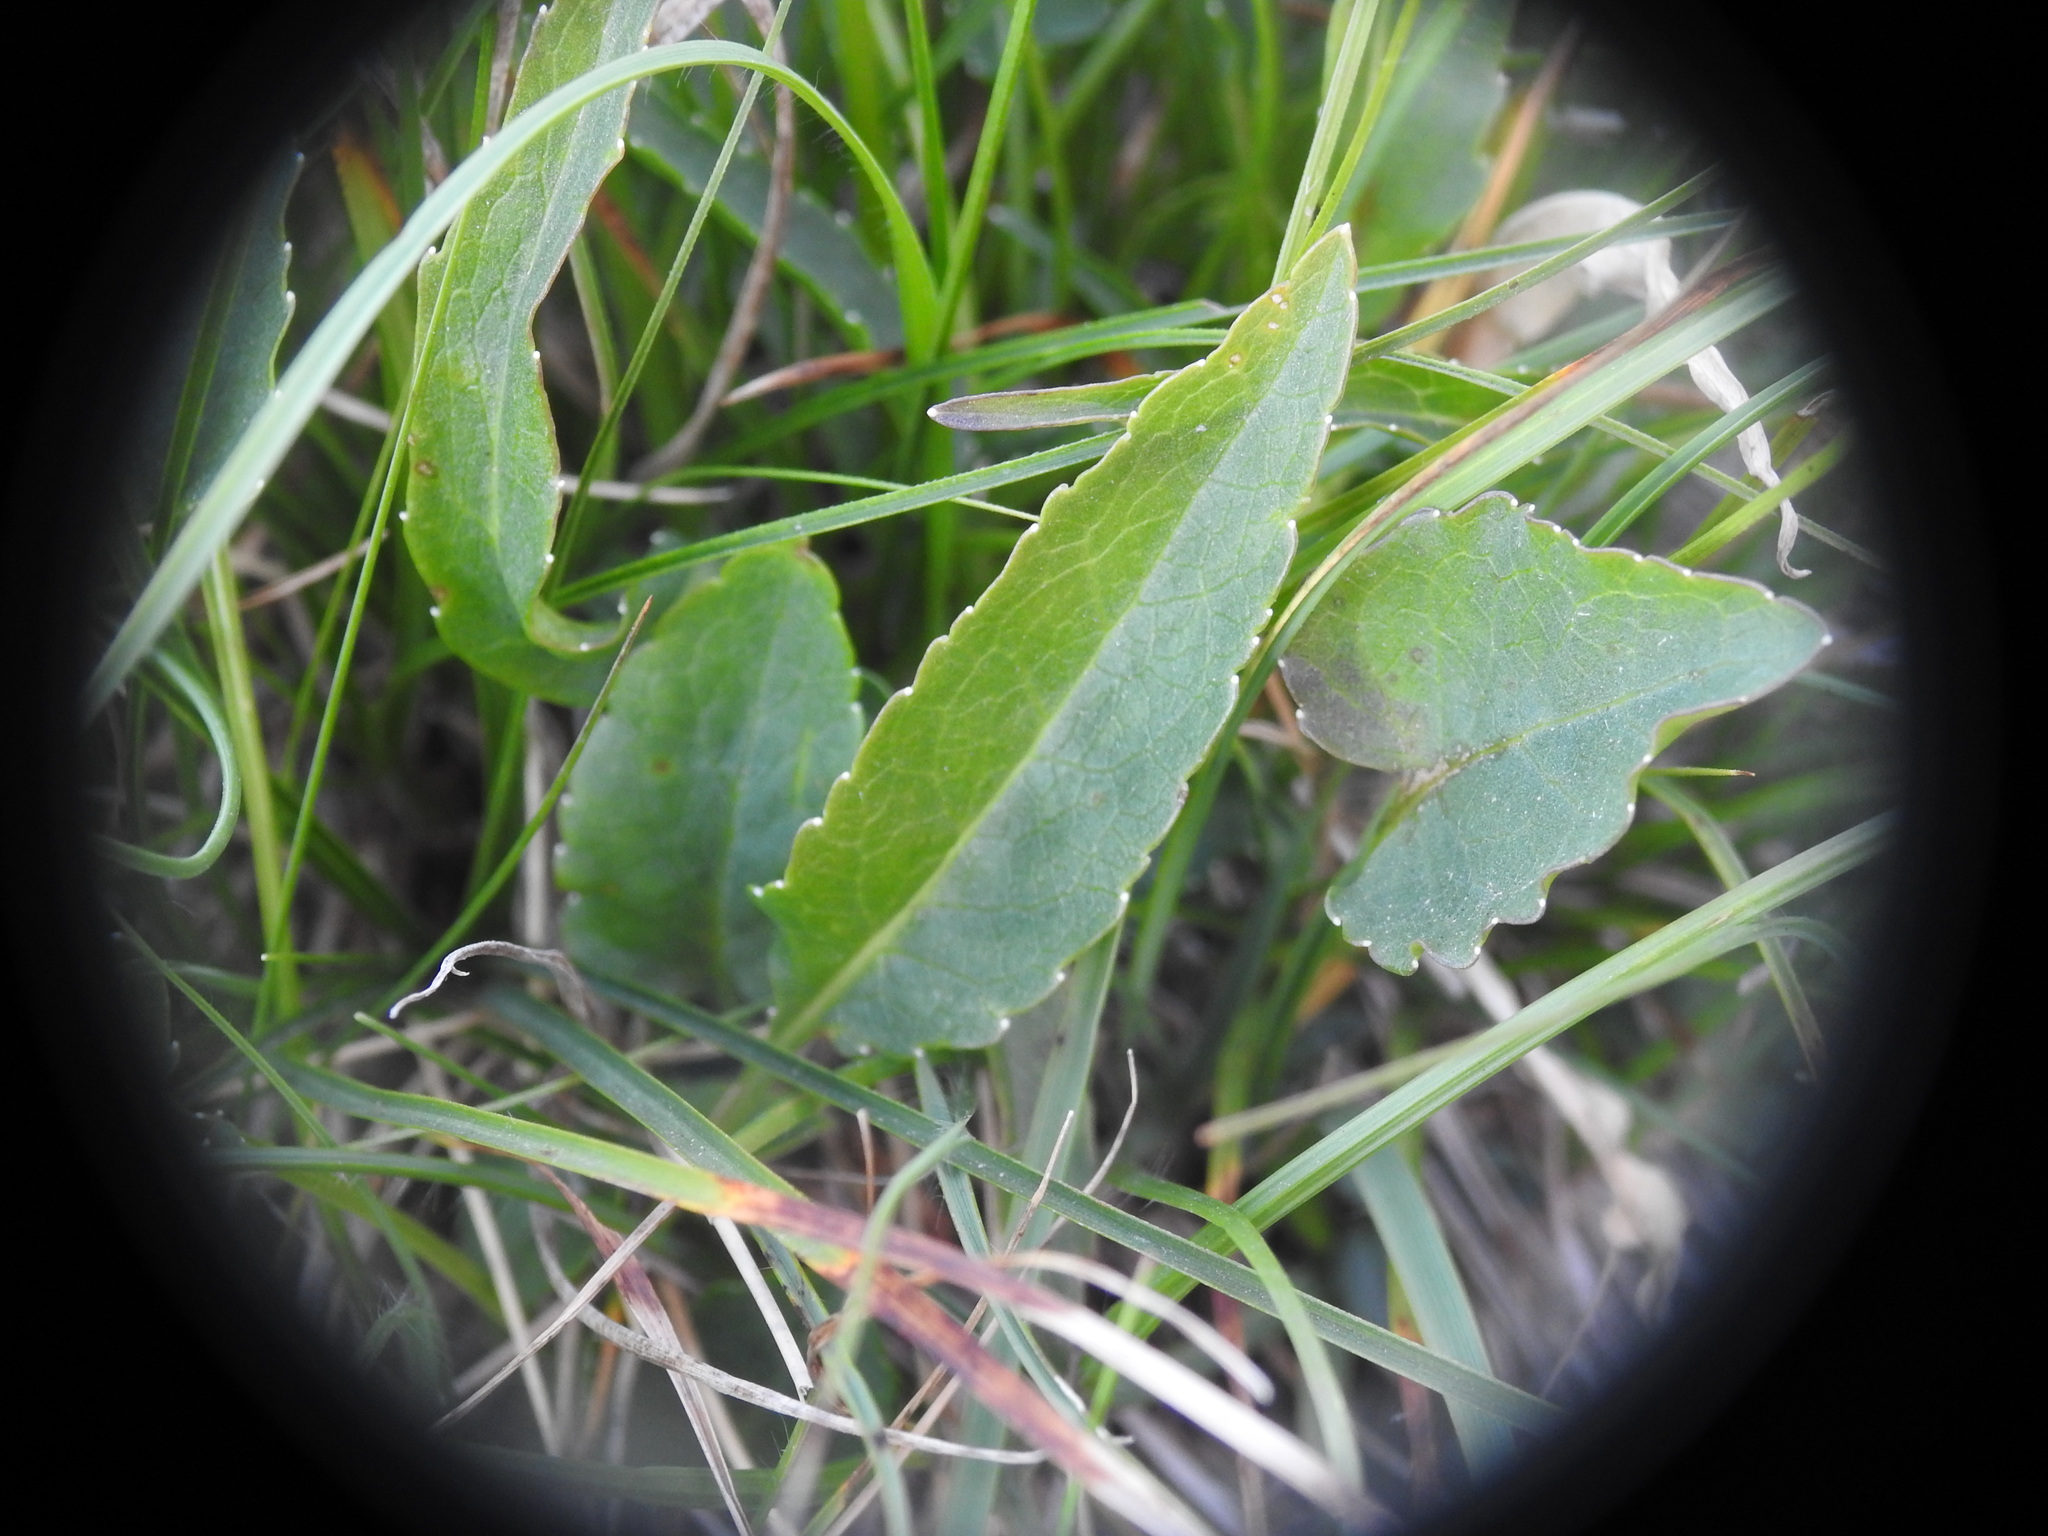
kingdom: Plantae
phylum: Tracheophyta
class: Magnoliopsida
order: Asterales
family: Campanulaceae
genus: Phyteuma
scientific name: Phyteuma orbiculare
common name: Round-headed rampion
